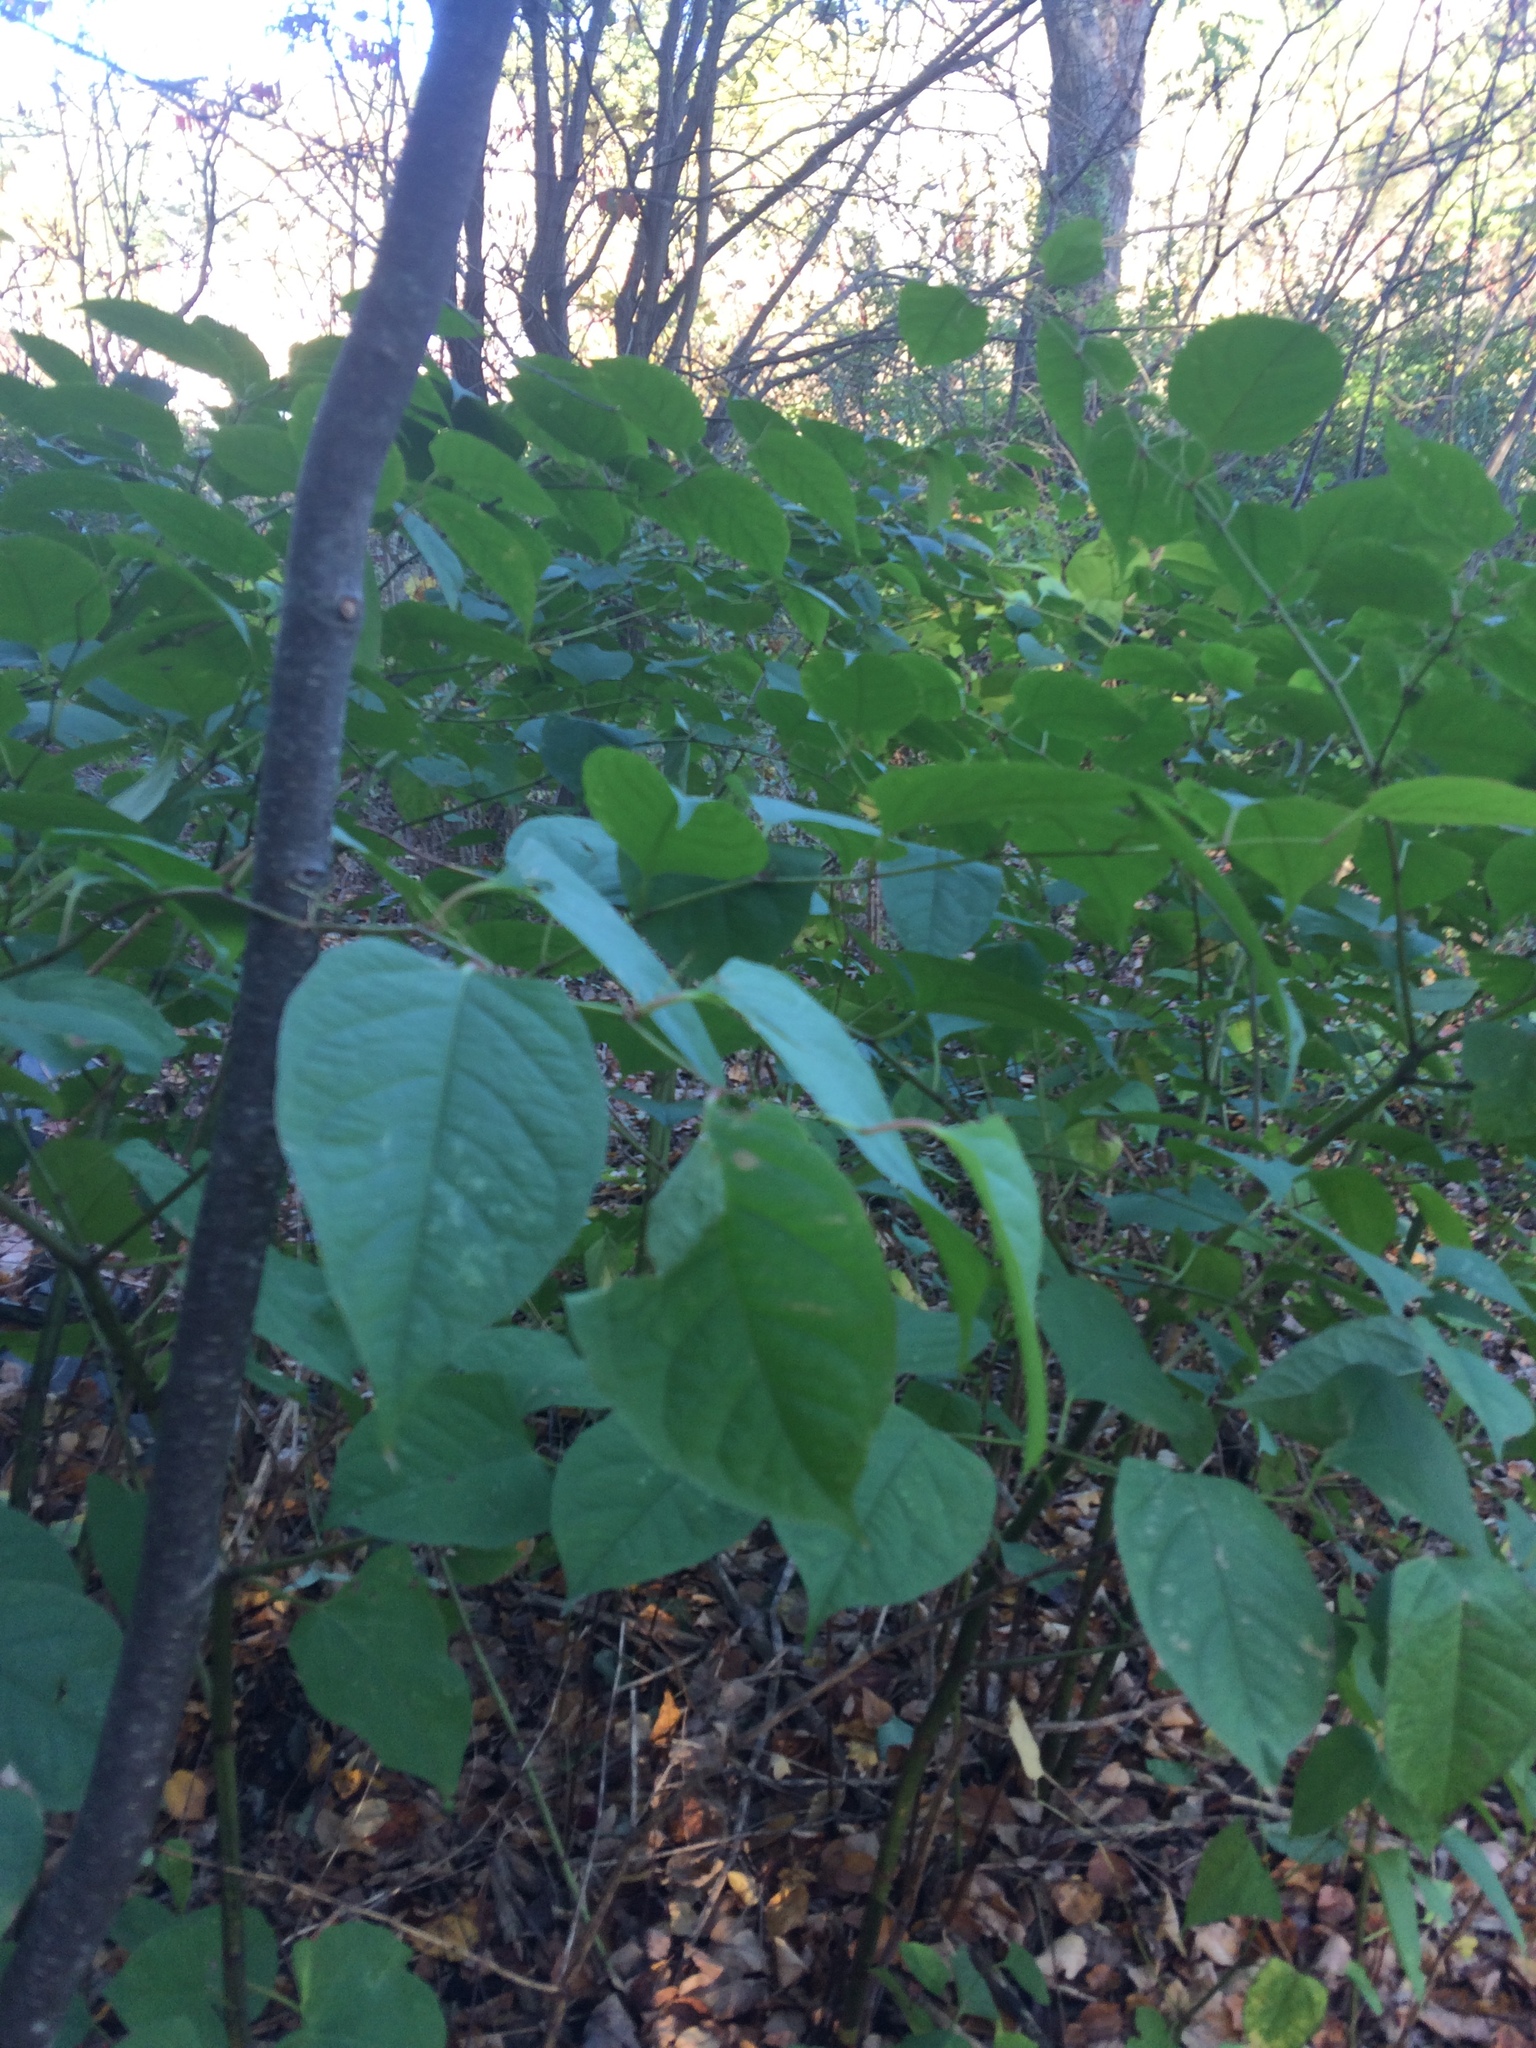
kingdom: Plantae
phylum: Tracheophyta
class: Magnoliopsida
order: Caryophyllales
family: Polygonaceae
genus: Reynoutria
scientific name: Reynoutria japonica
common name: Japanese knotweed
